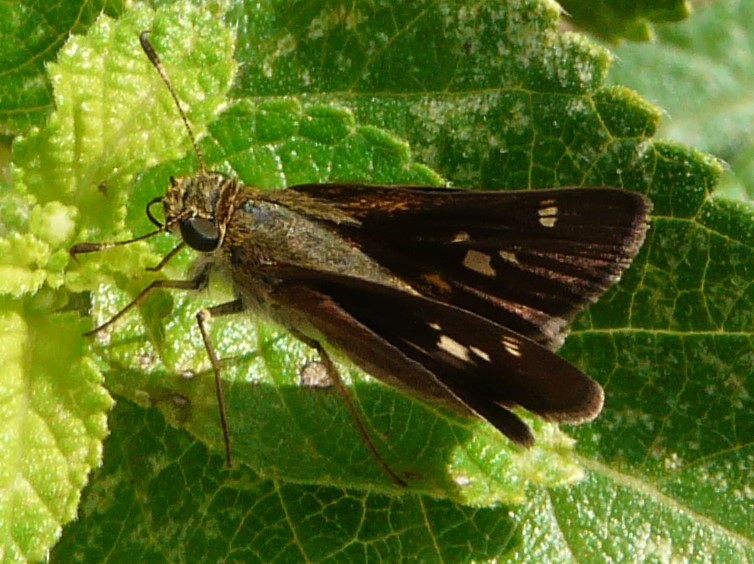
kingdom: Animalia
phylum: Arthropoda
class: Insecta
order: Lepidoptera
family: Hesperiidae
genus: Vernia
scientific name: Vernia verna
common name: Little glassywing
